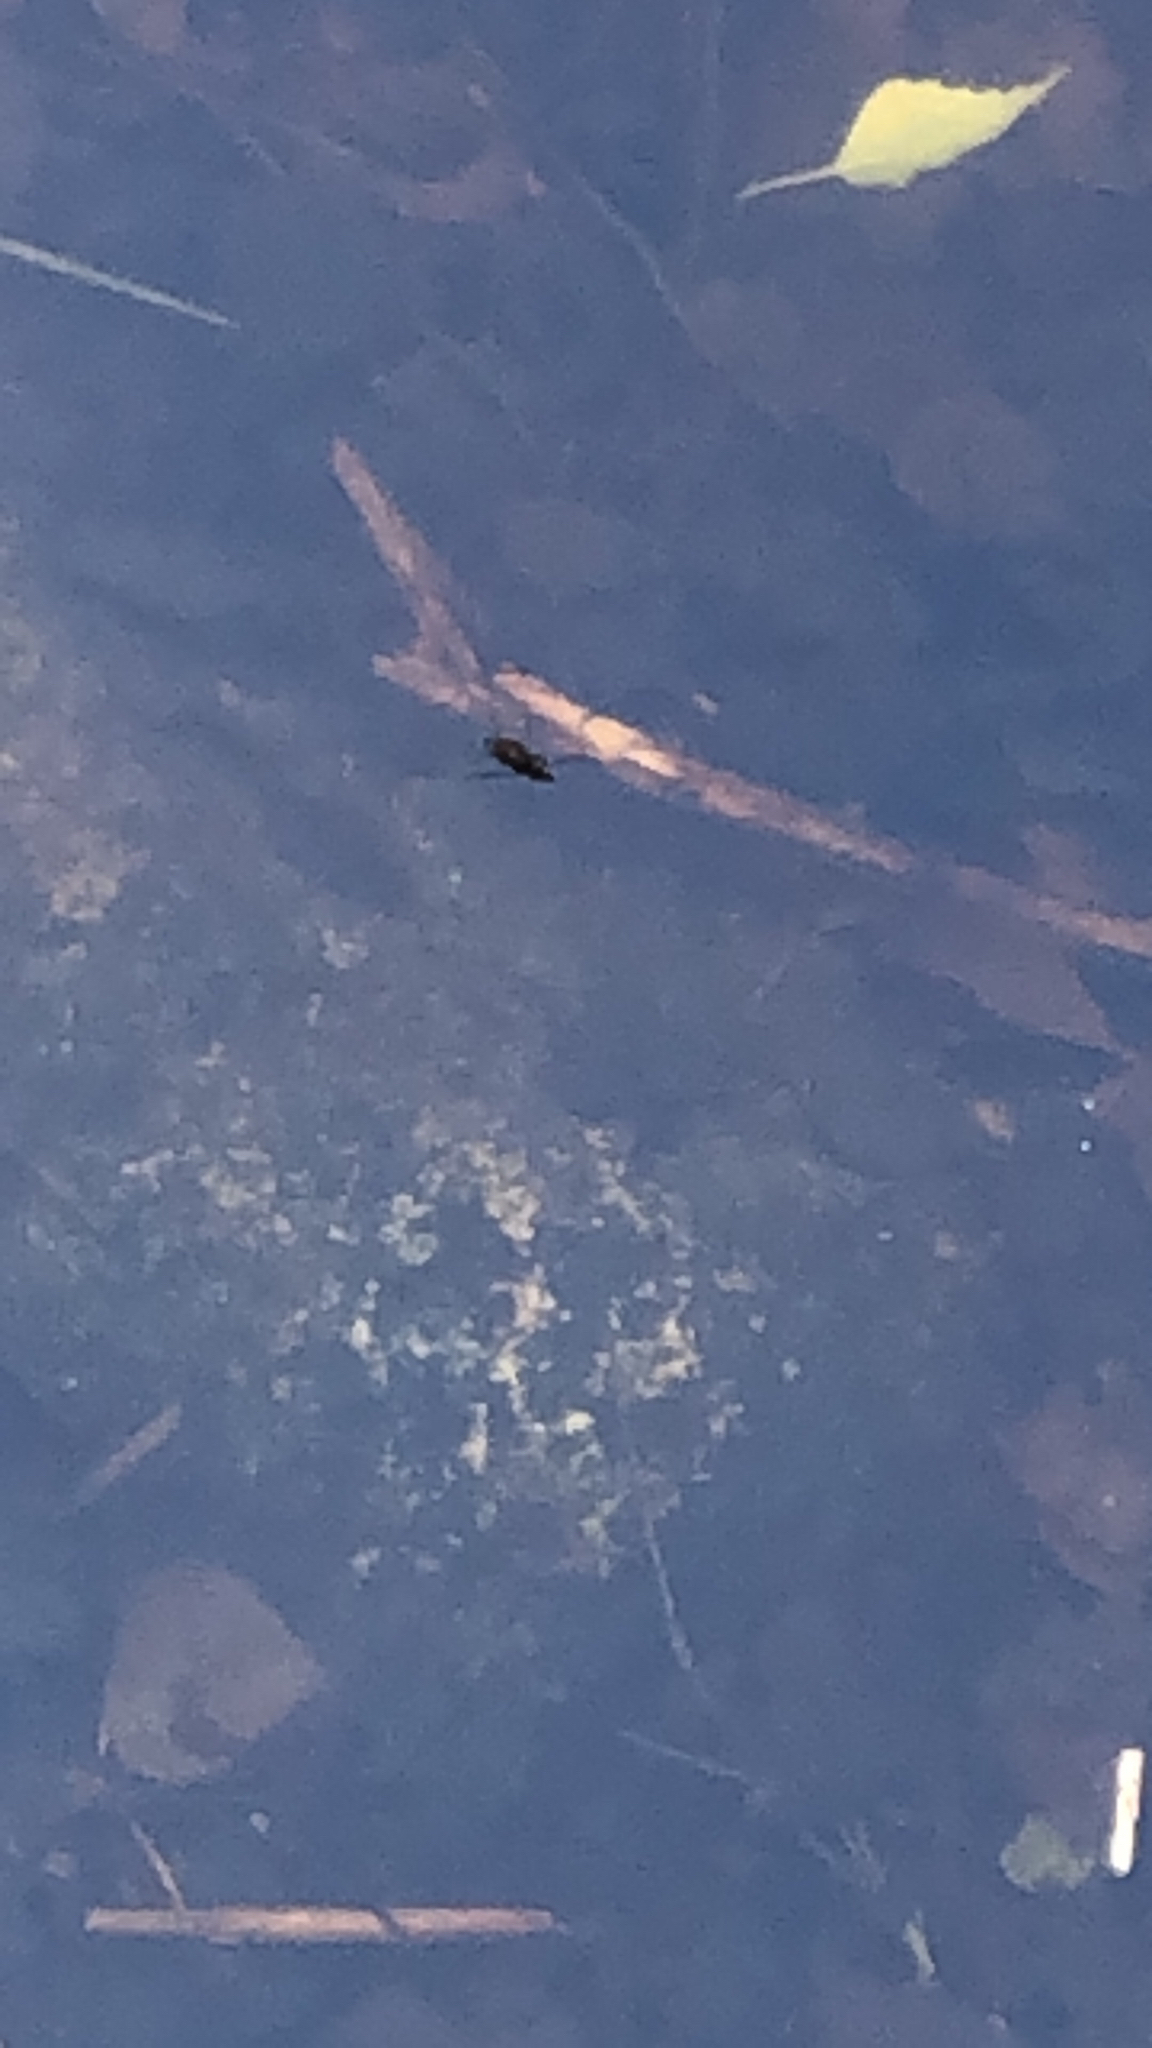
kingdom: Animalia
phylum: Arthropoda
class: Insecta
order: Hemiptera
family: Gerridae
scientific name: Gerridae
